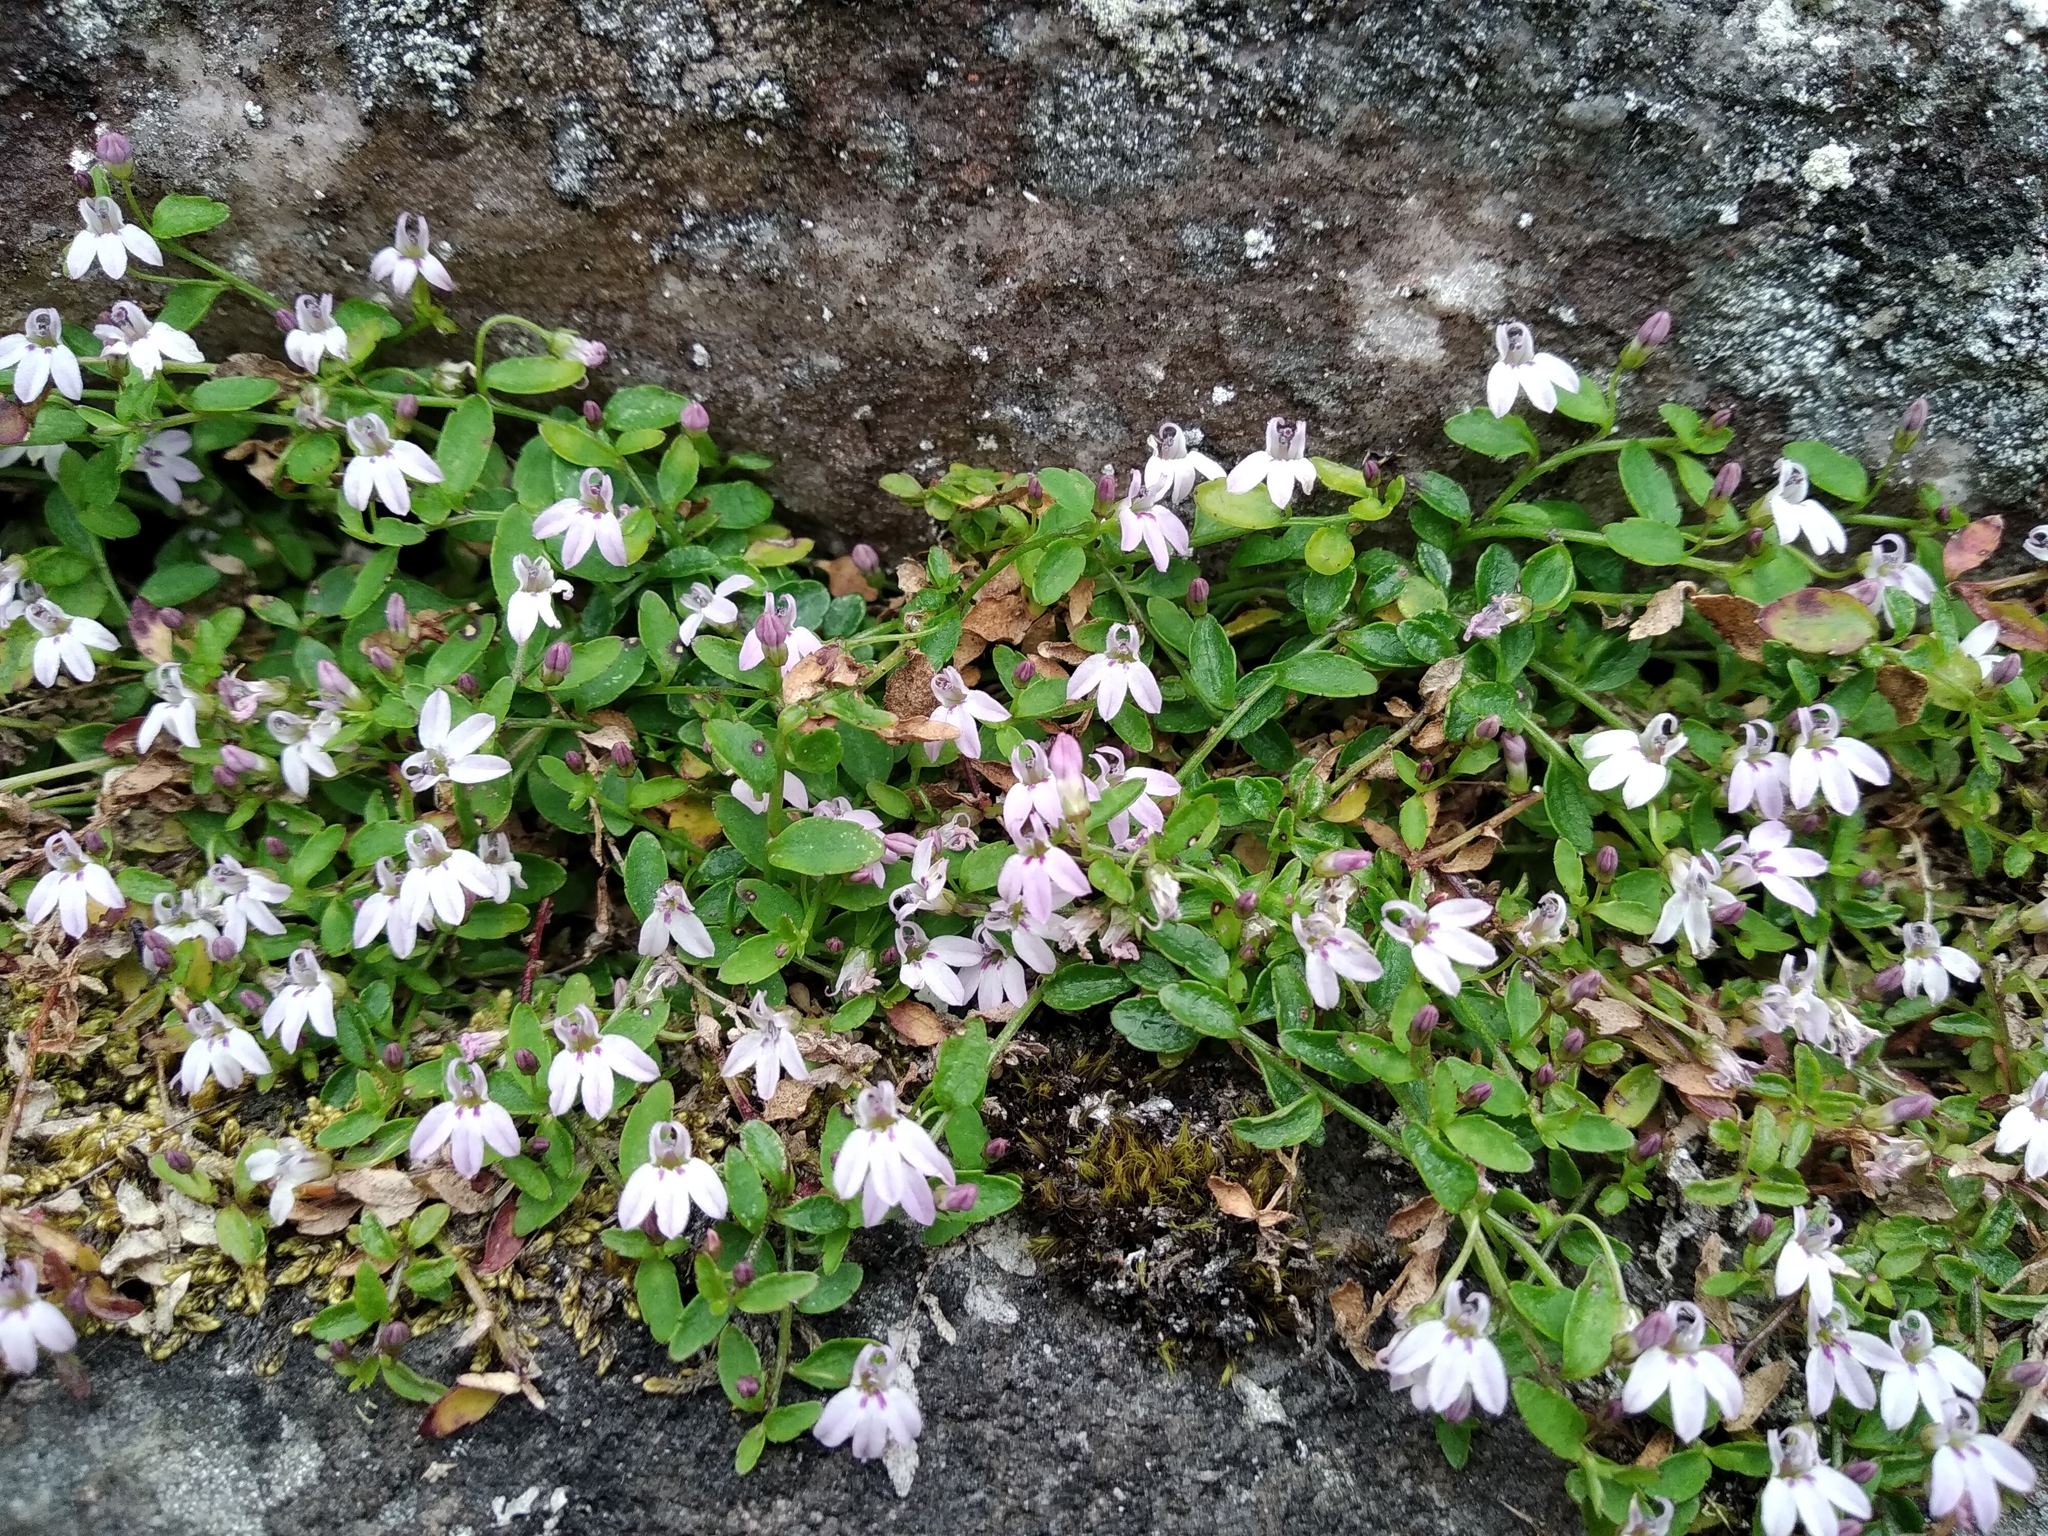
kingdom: Plantae
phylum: Tracheophyta
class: Magnoliopsida
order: Asterales
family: Campanulaceae
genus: Unigenes
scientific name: Unigenes humifusa
